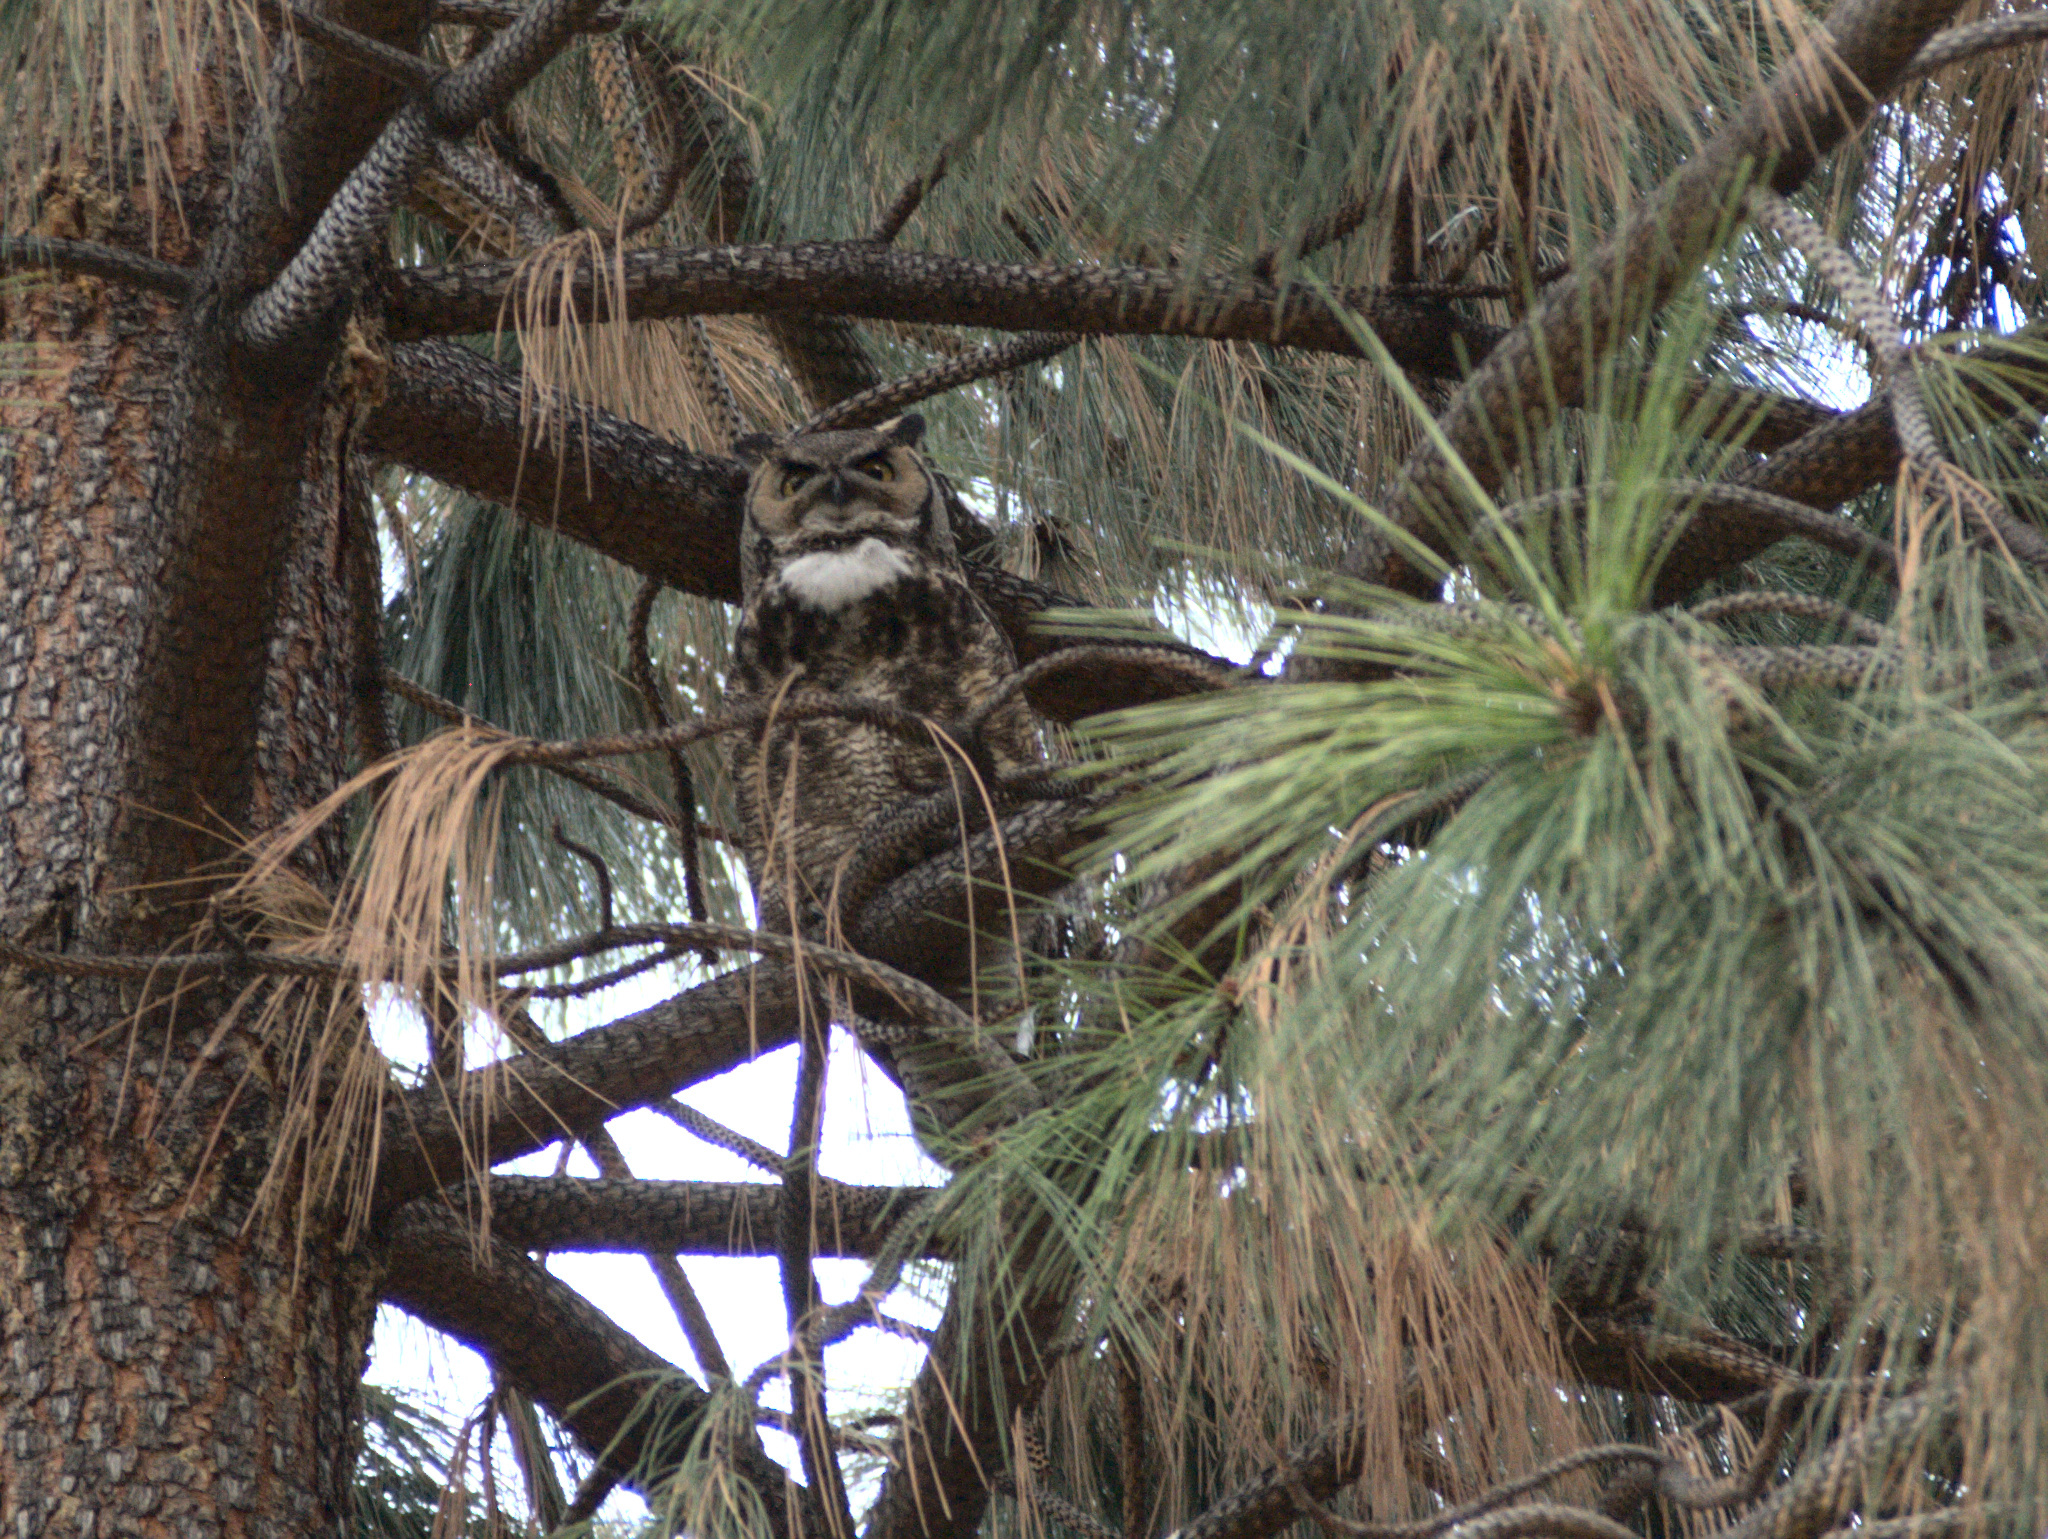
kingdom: Animalia
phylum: Chordata
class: Aves
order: Strigiformes
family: Strigidae
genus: Bubo
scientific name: Bubo virginianus
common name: Great horned owl
